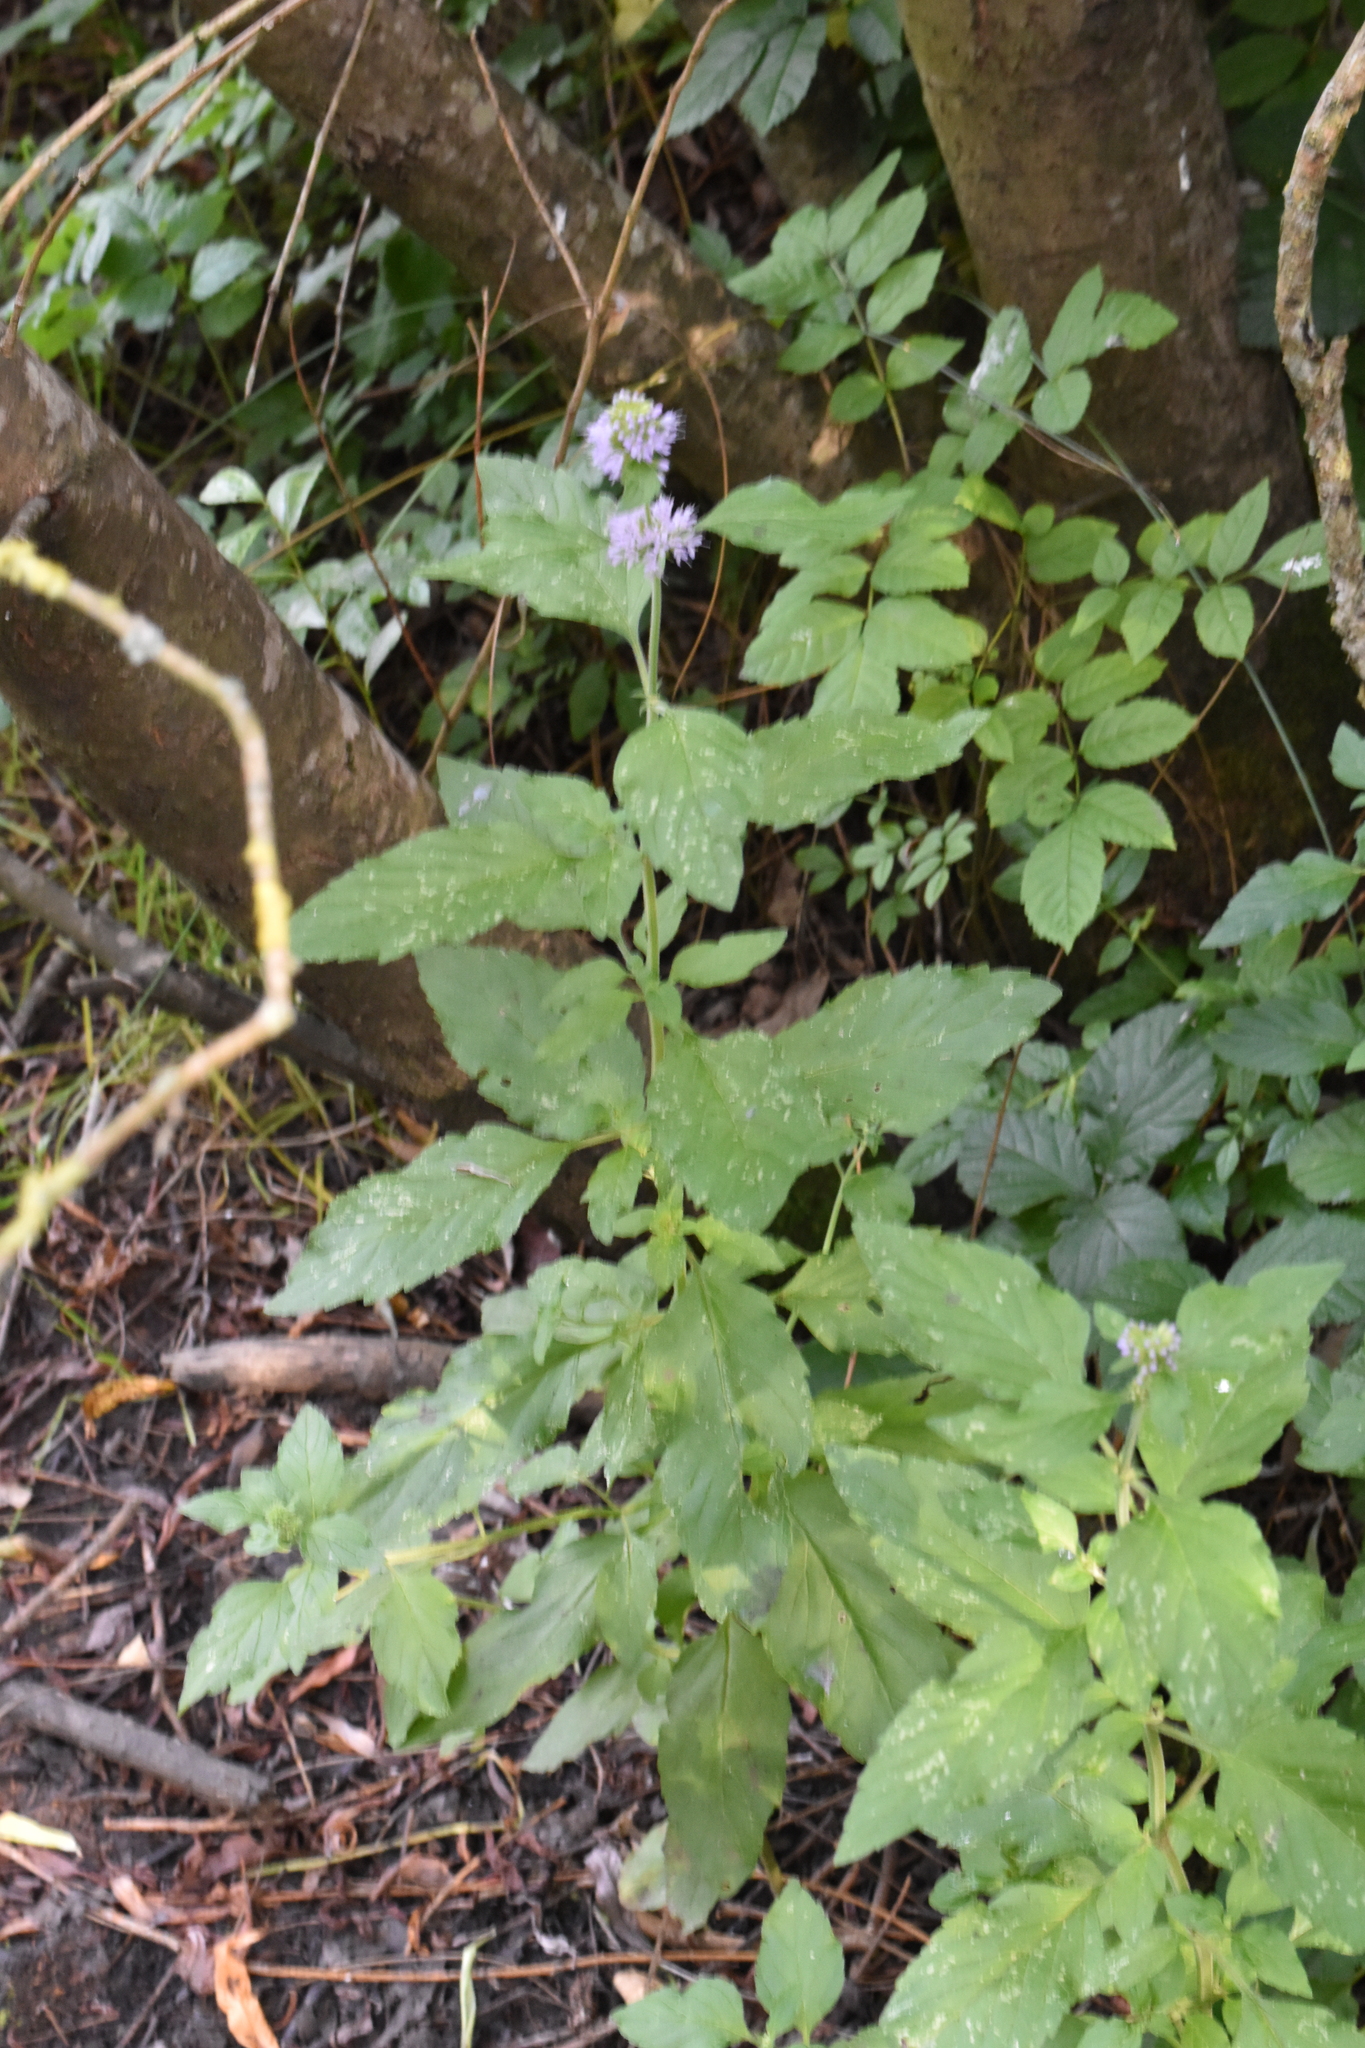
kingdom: Plantae
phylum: Tracheophyta
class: Magnoliopsida
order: Lamiales
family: Lamiaceae
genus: Mentha
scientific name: Mentha aquatica
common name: Water mint
